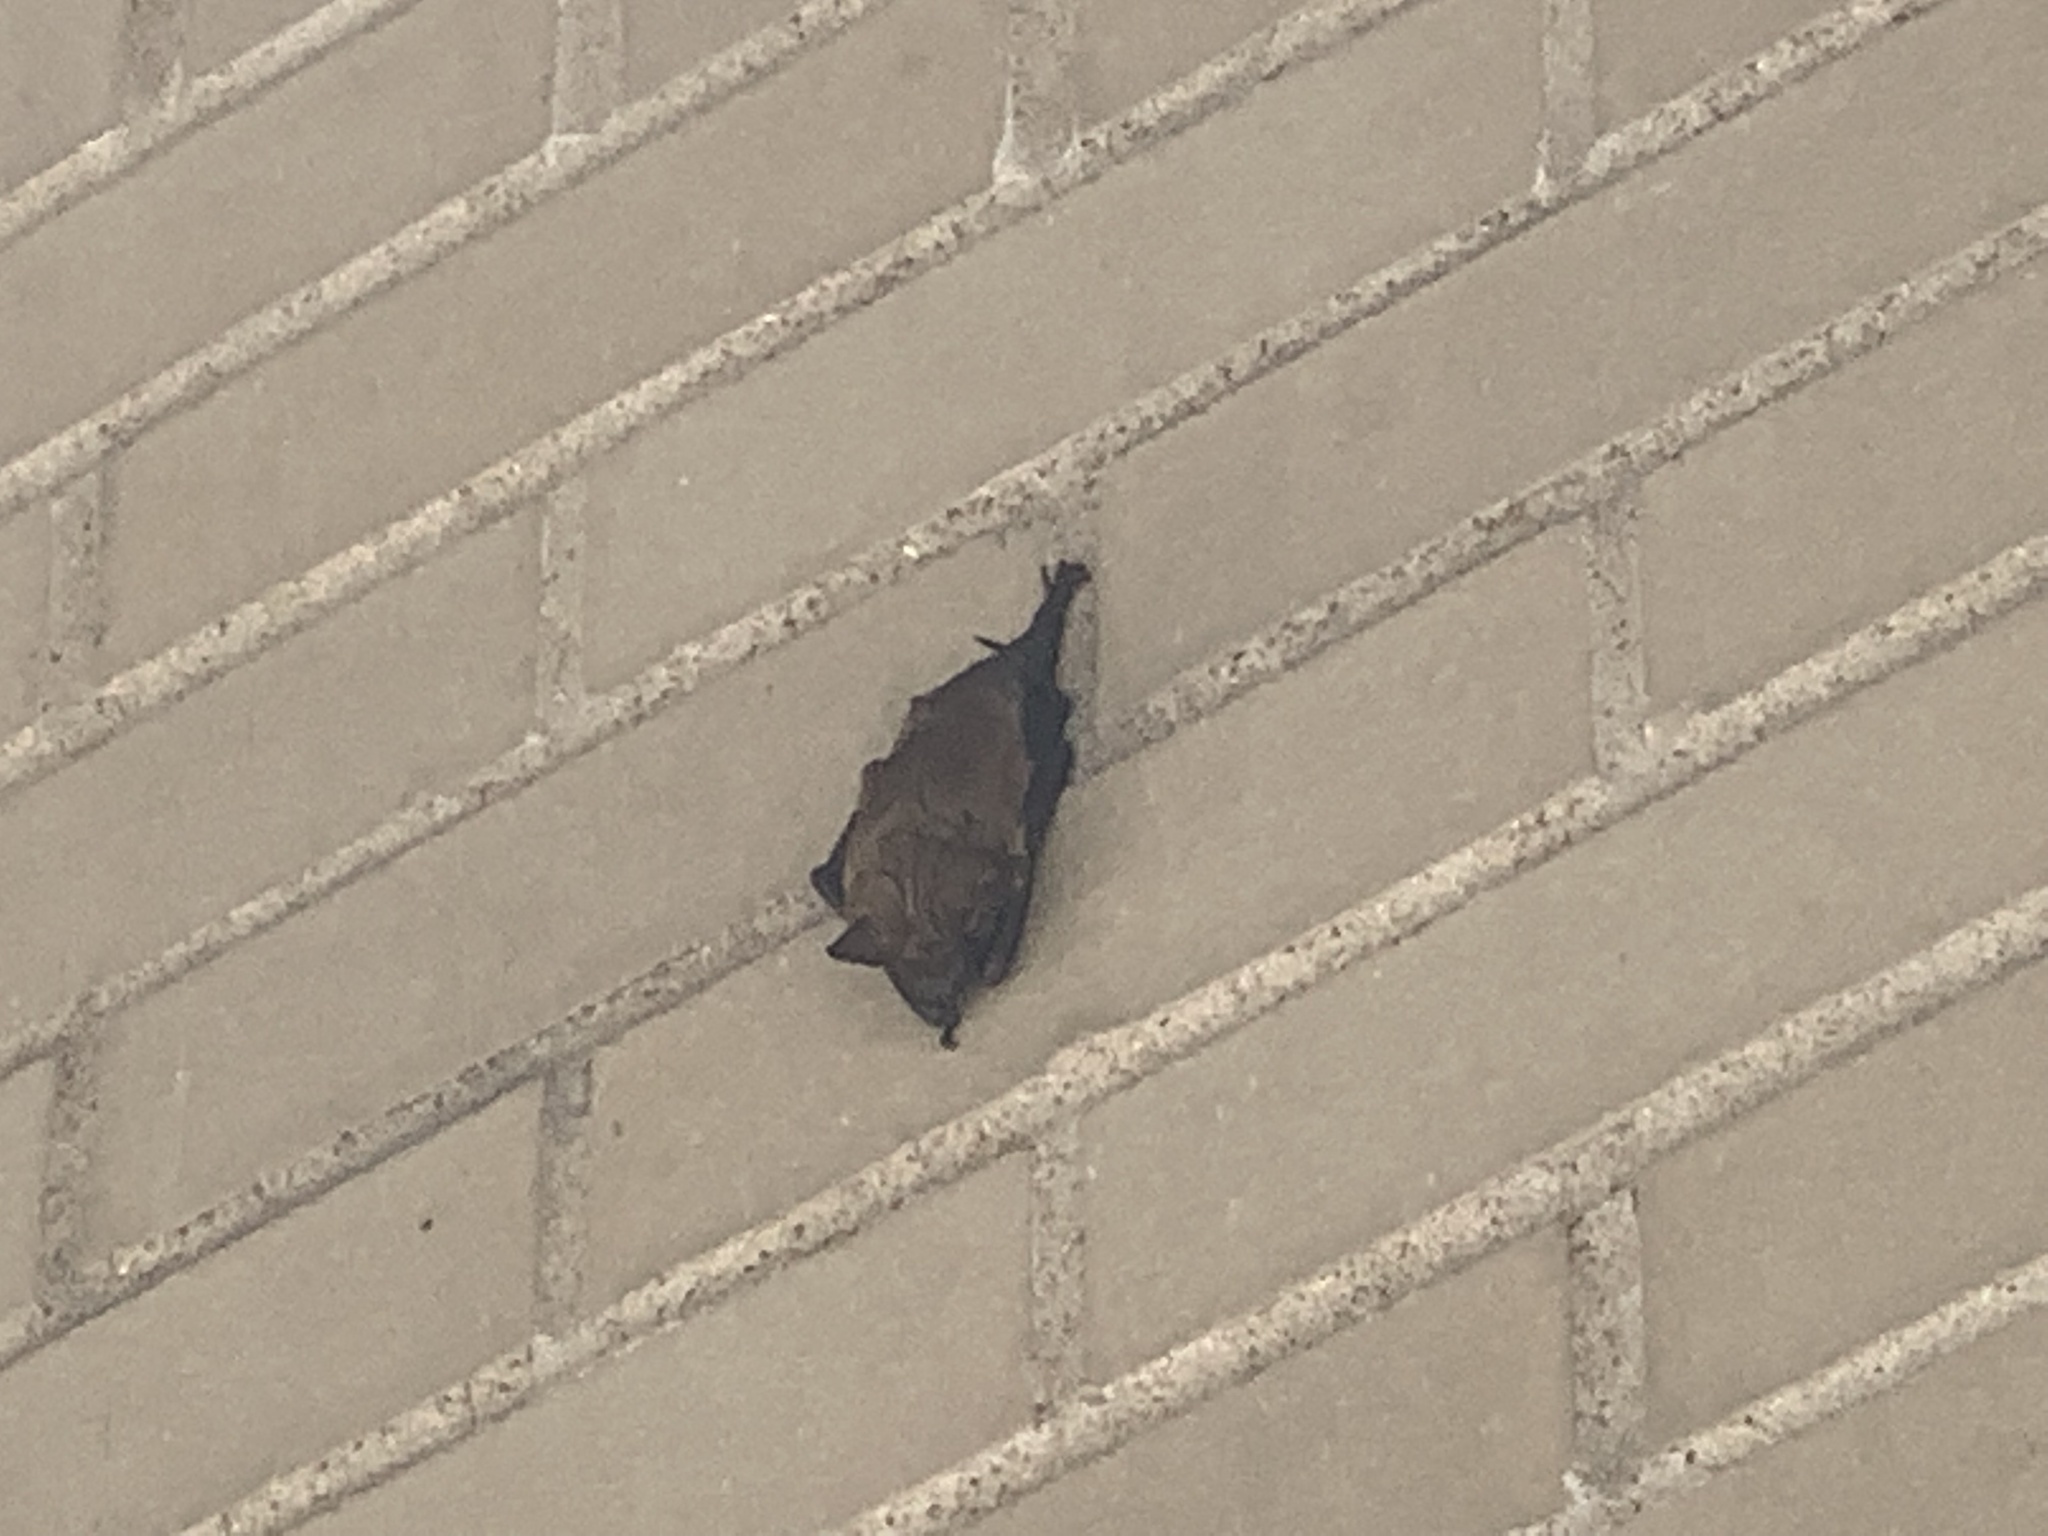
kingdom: Animalia
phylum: Chordata
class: Mammalia
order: Chiroptera
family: Vespertilionidae
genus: Eptesicus
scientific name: Eptesicus fuscus
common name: Big brown bat
